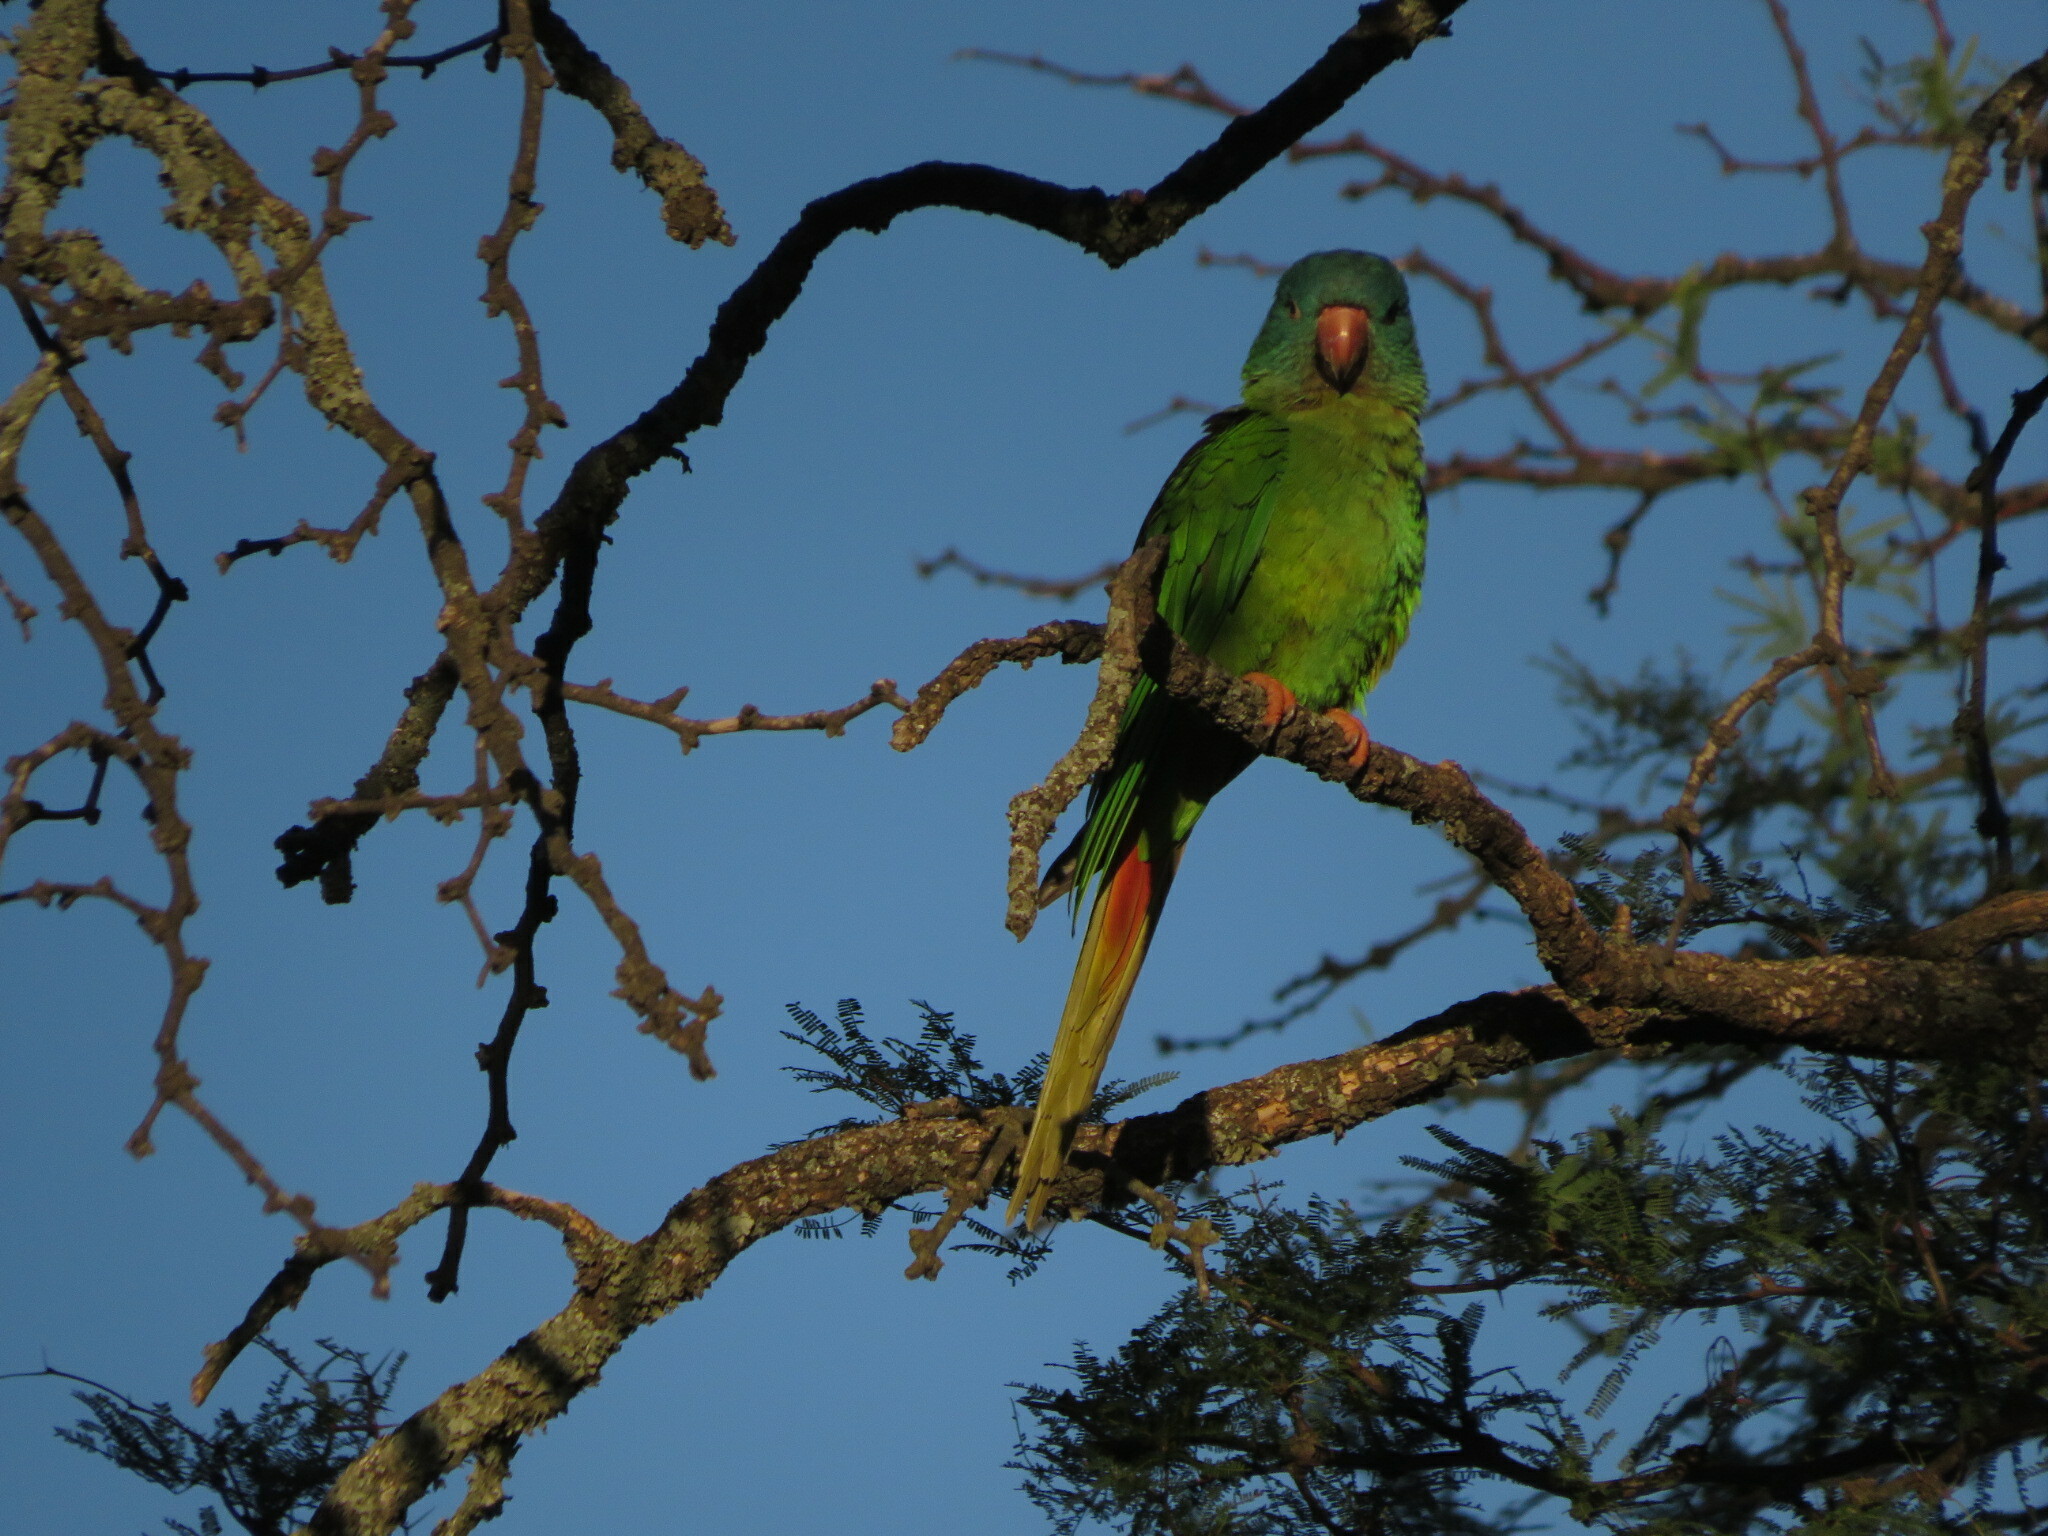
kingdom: Animalia
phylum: Chordata
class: Aves
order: Psittaciformes
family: Psittacidae
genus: Aratinga
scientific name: Aratinga acuticaudata
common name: Blue-crowned parakeet
